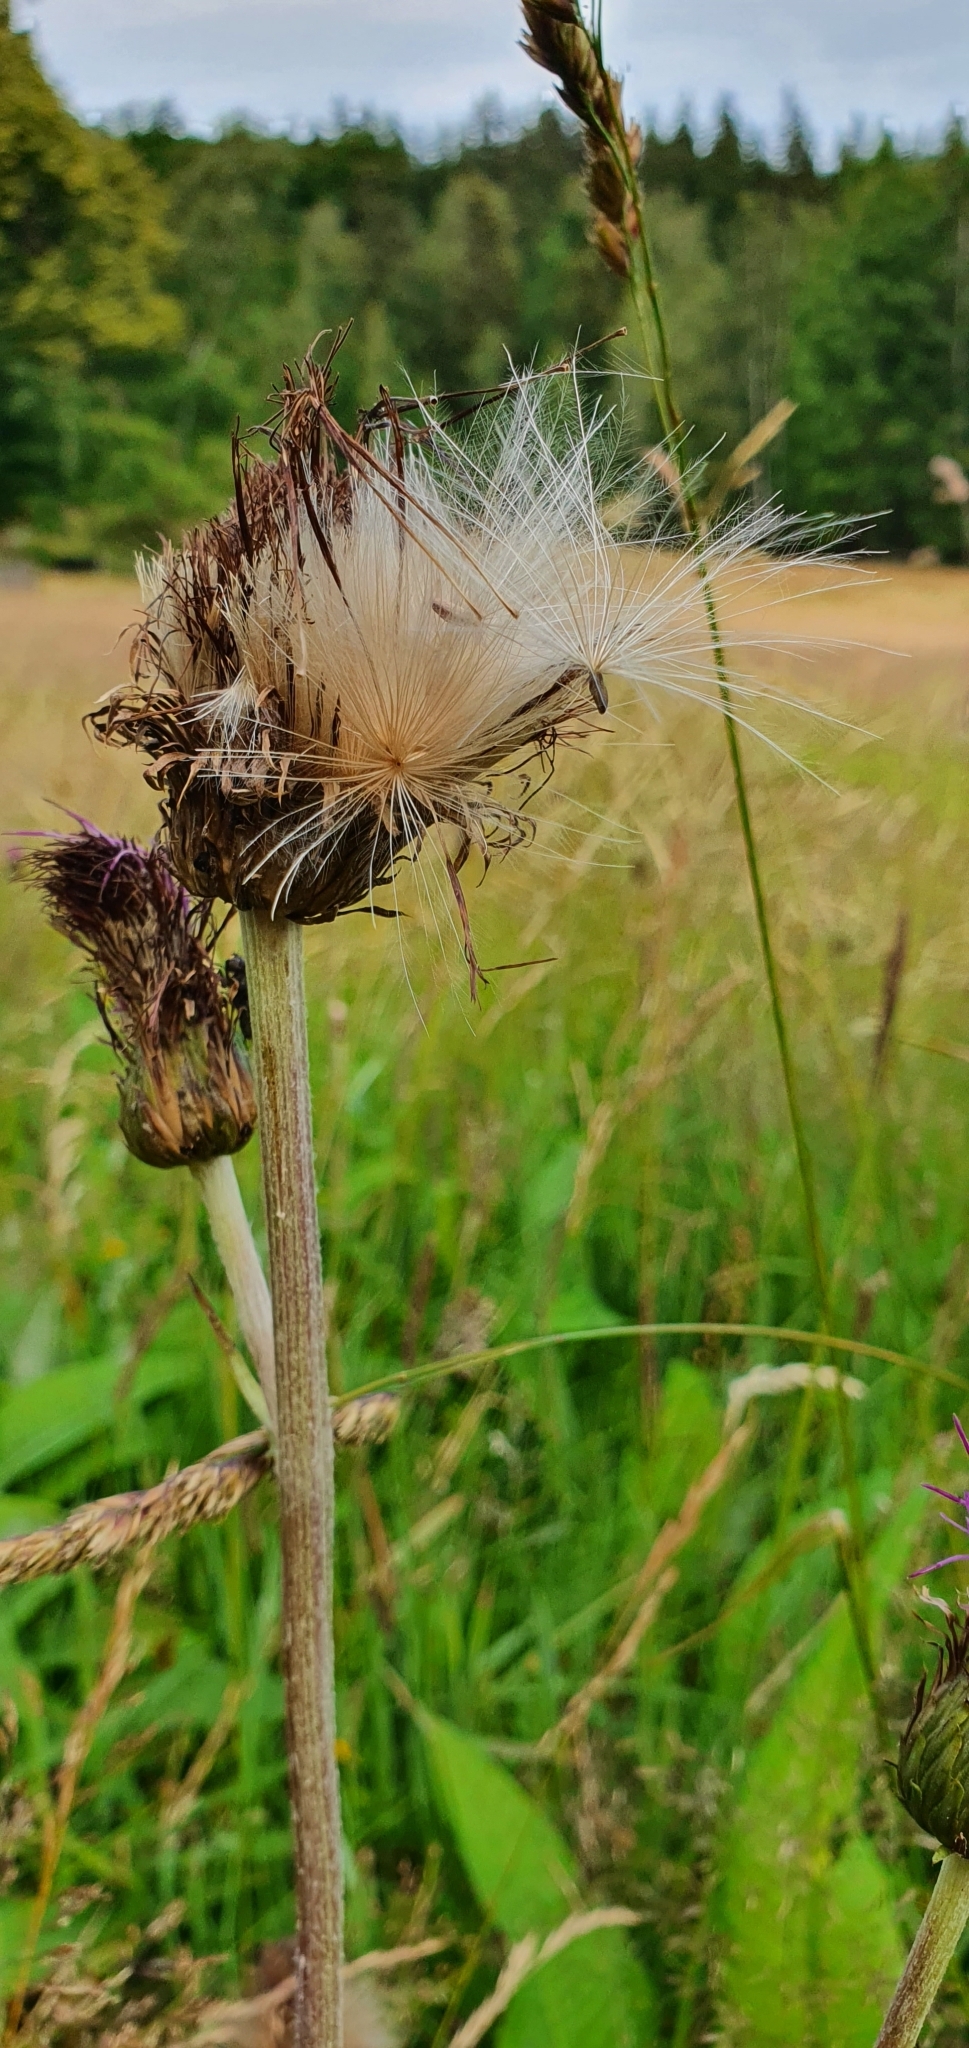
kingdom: Plantae
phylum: Tracheophyta
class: Magnoliopsida
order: Asterales
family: Asteraceae
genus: Cirsium
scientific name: Cirsium heterophyllum
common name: Melancholy thistle
